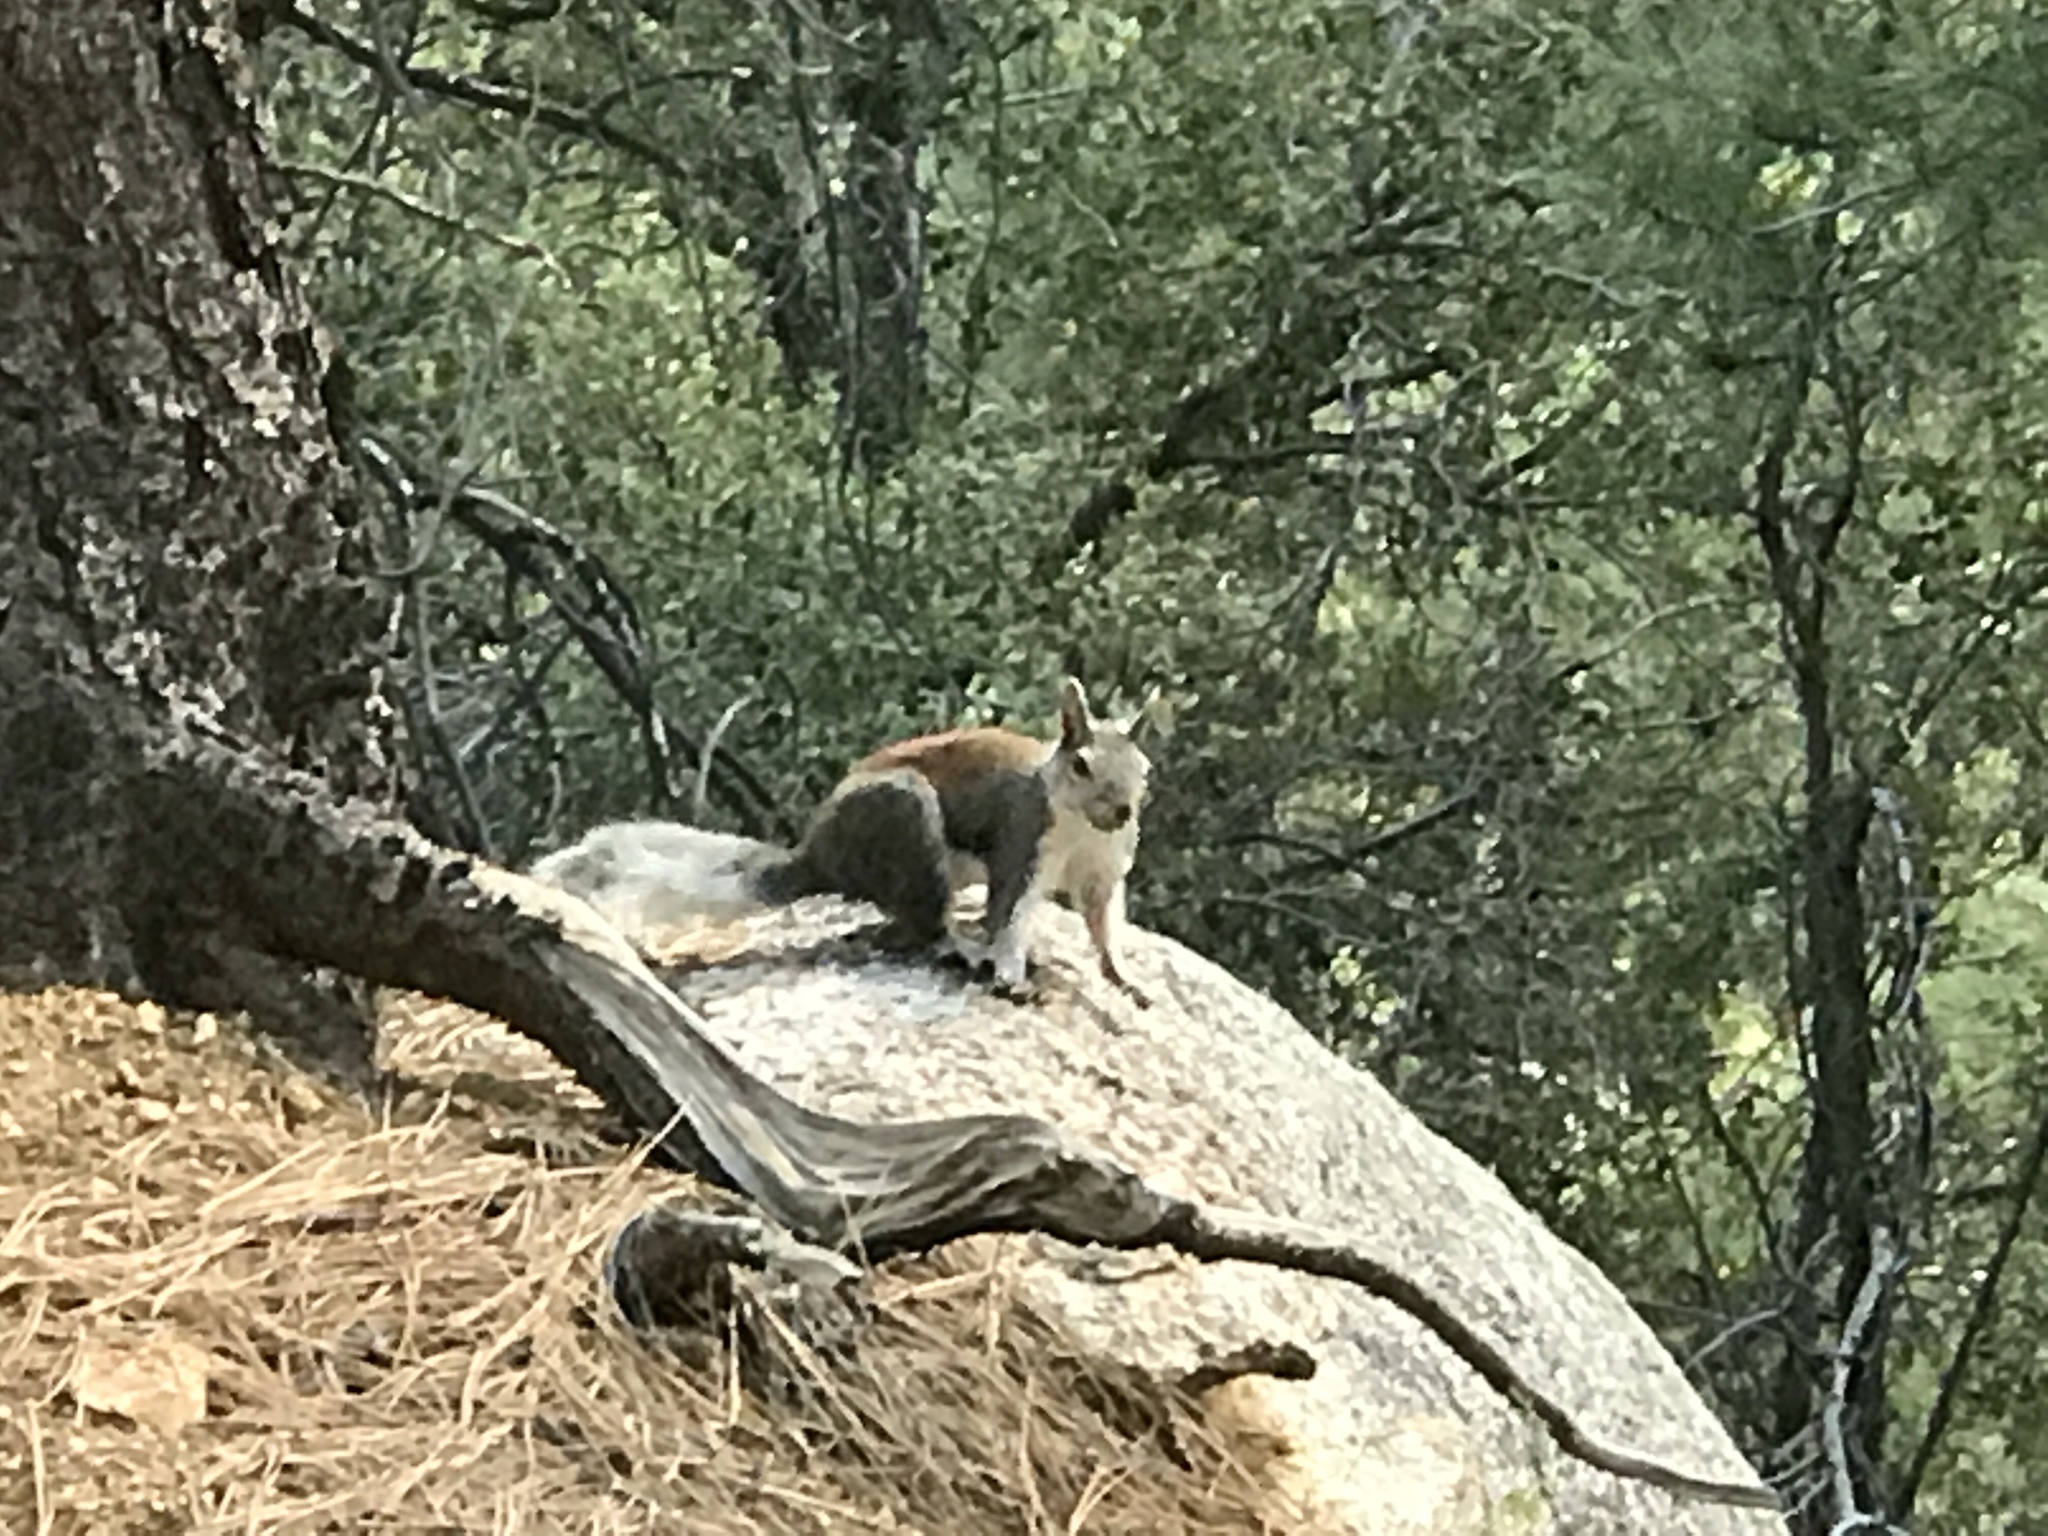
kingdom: Animalia
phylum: Chordata
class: Mammalia
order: Rodentia
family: Sciuridae
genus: Sciurus
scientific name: Sciurus aberti
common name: Abert's squirrel
